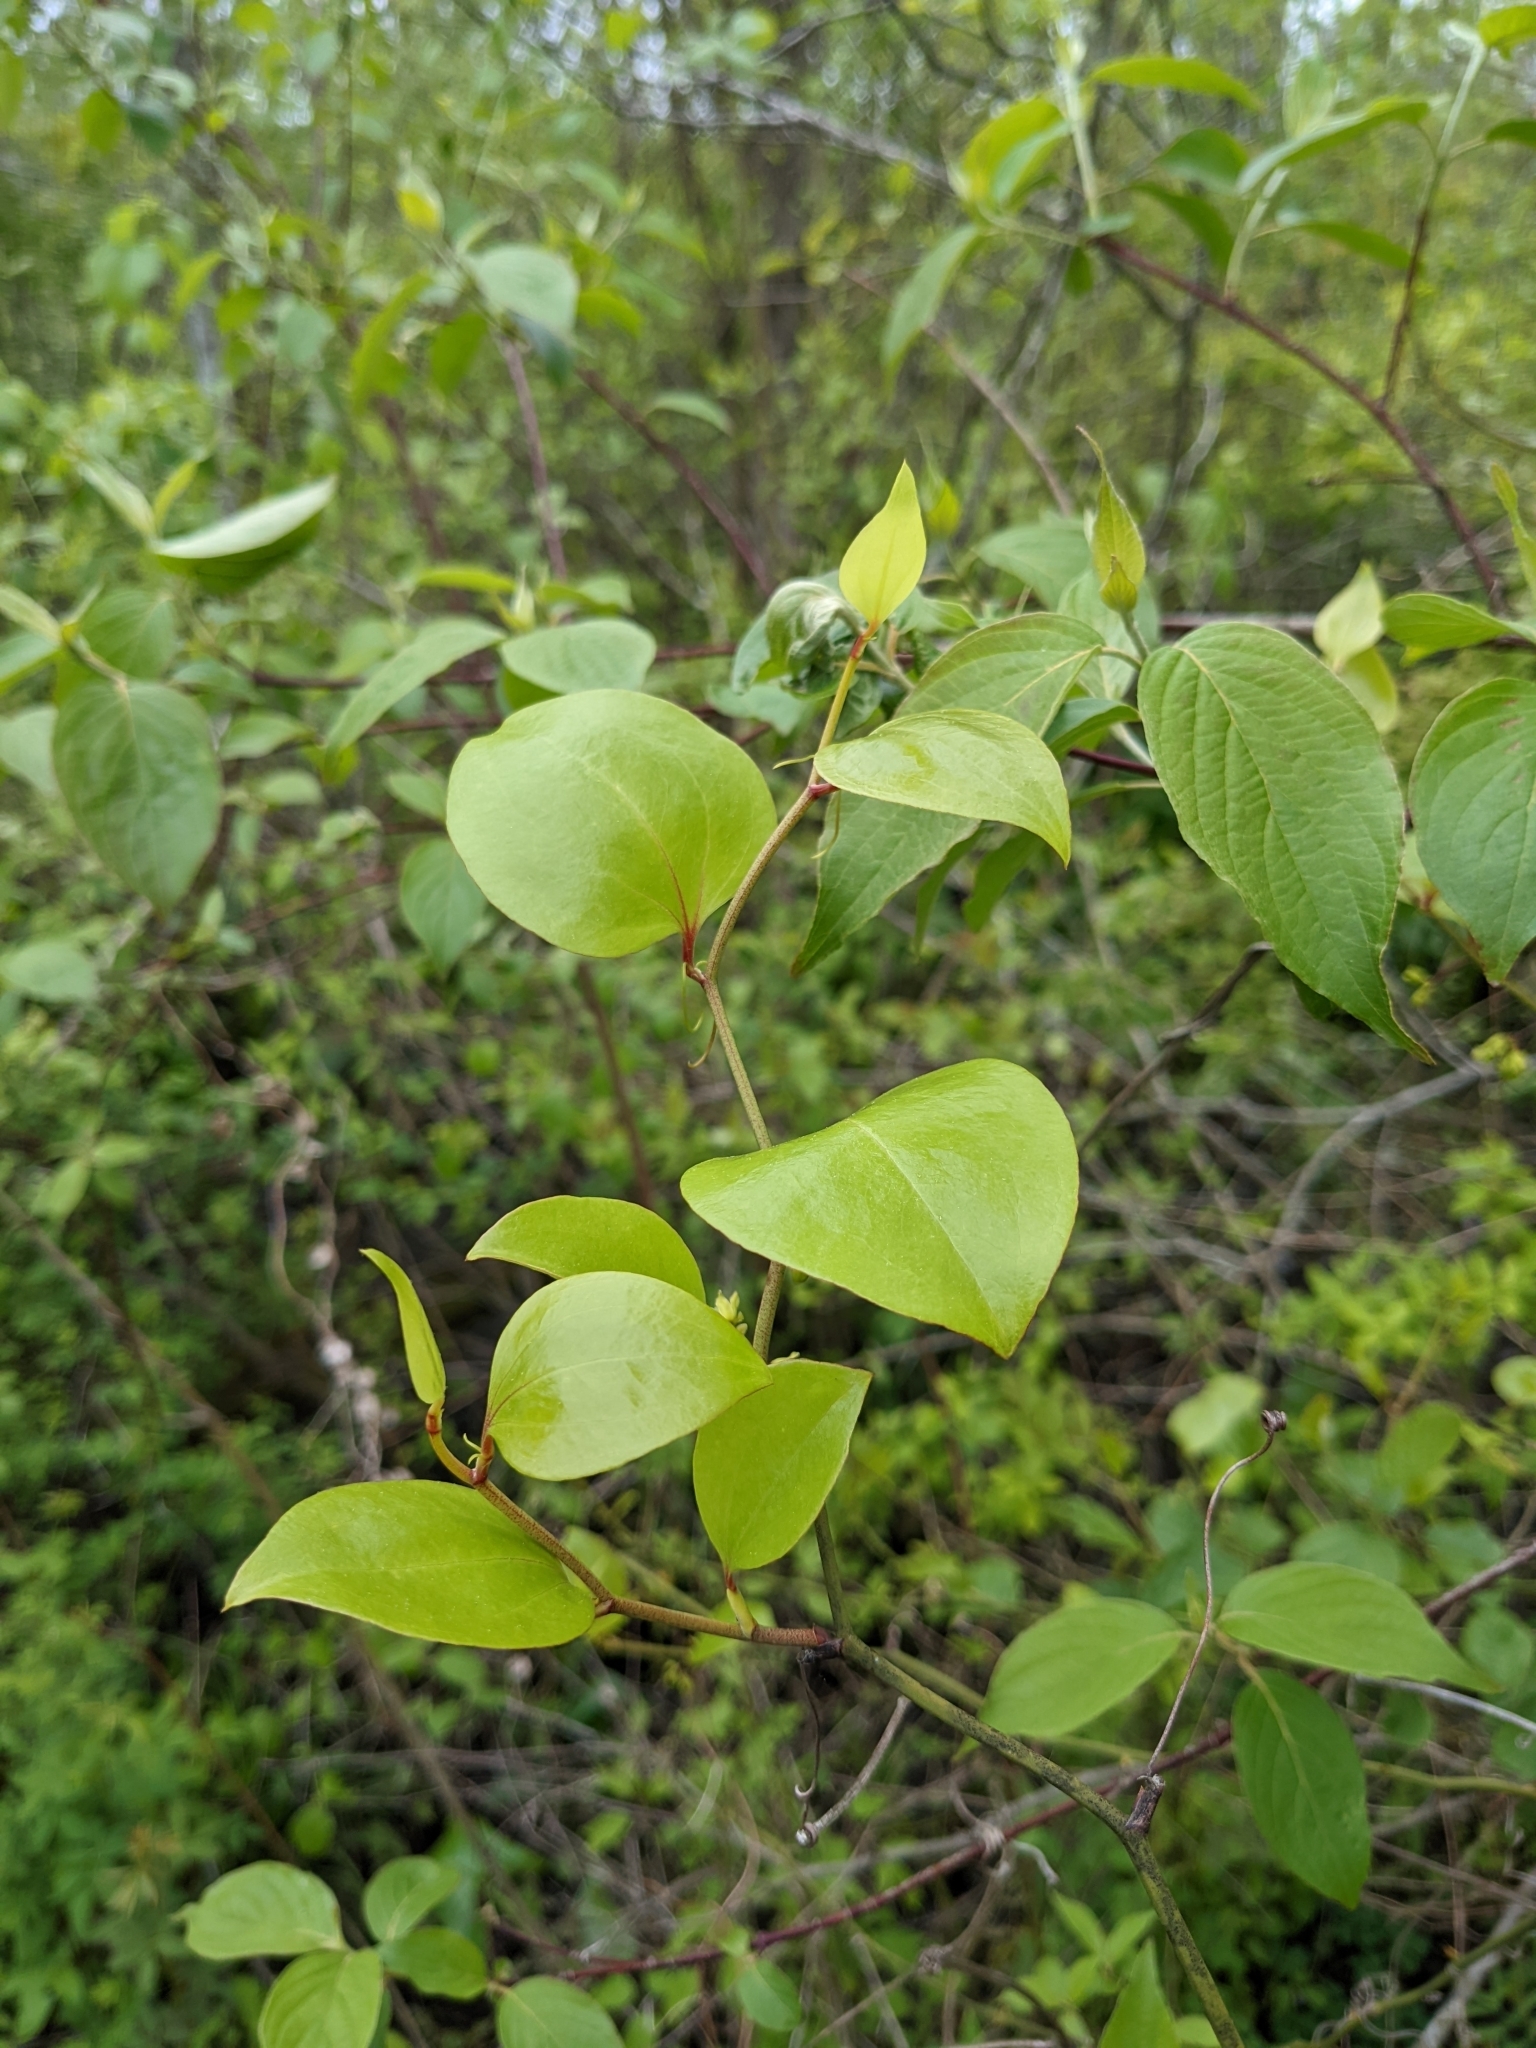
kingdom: Plantae
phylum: Tracheophyta
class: Liliopsida
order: Liliales
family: Smilacaceae
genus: Smilax
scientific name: Smilax rotundifolia
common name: Bullbriar
